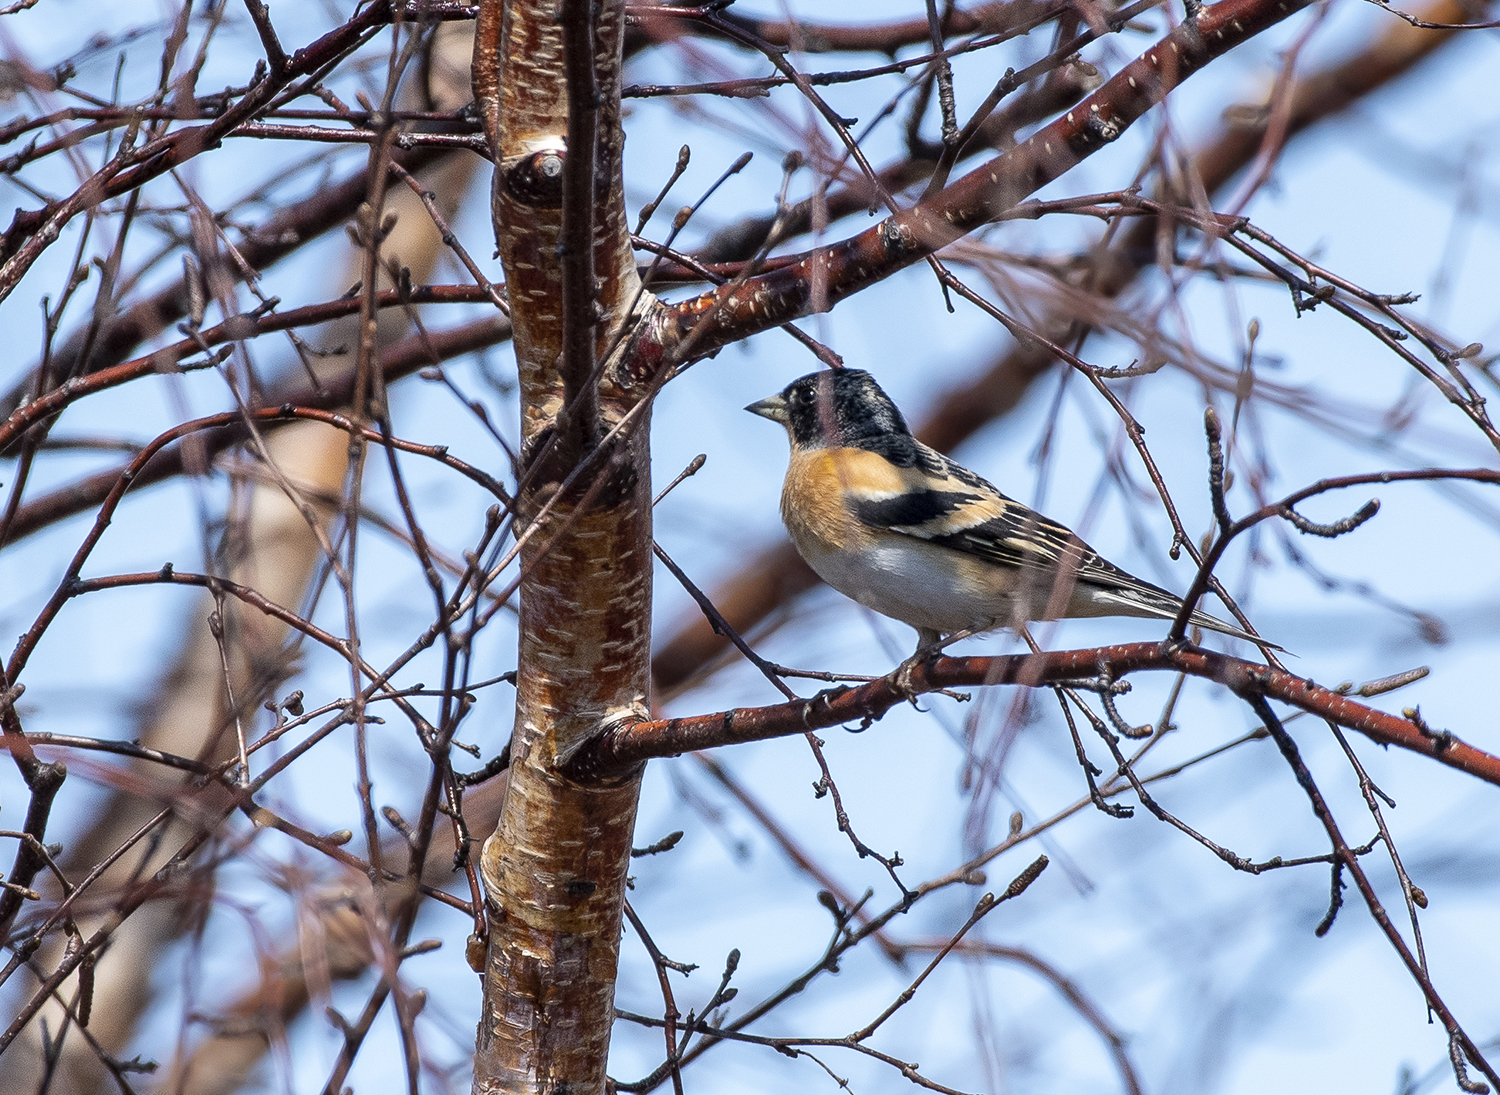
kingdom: Animalia
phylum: Chordata
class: Aves
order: Passeriformes
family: Fringillidae
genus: Fringilla
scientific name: Fringilla montifringilla
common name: Brambling
